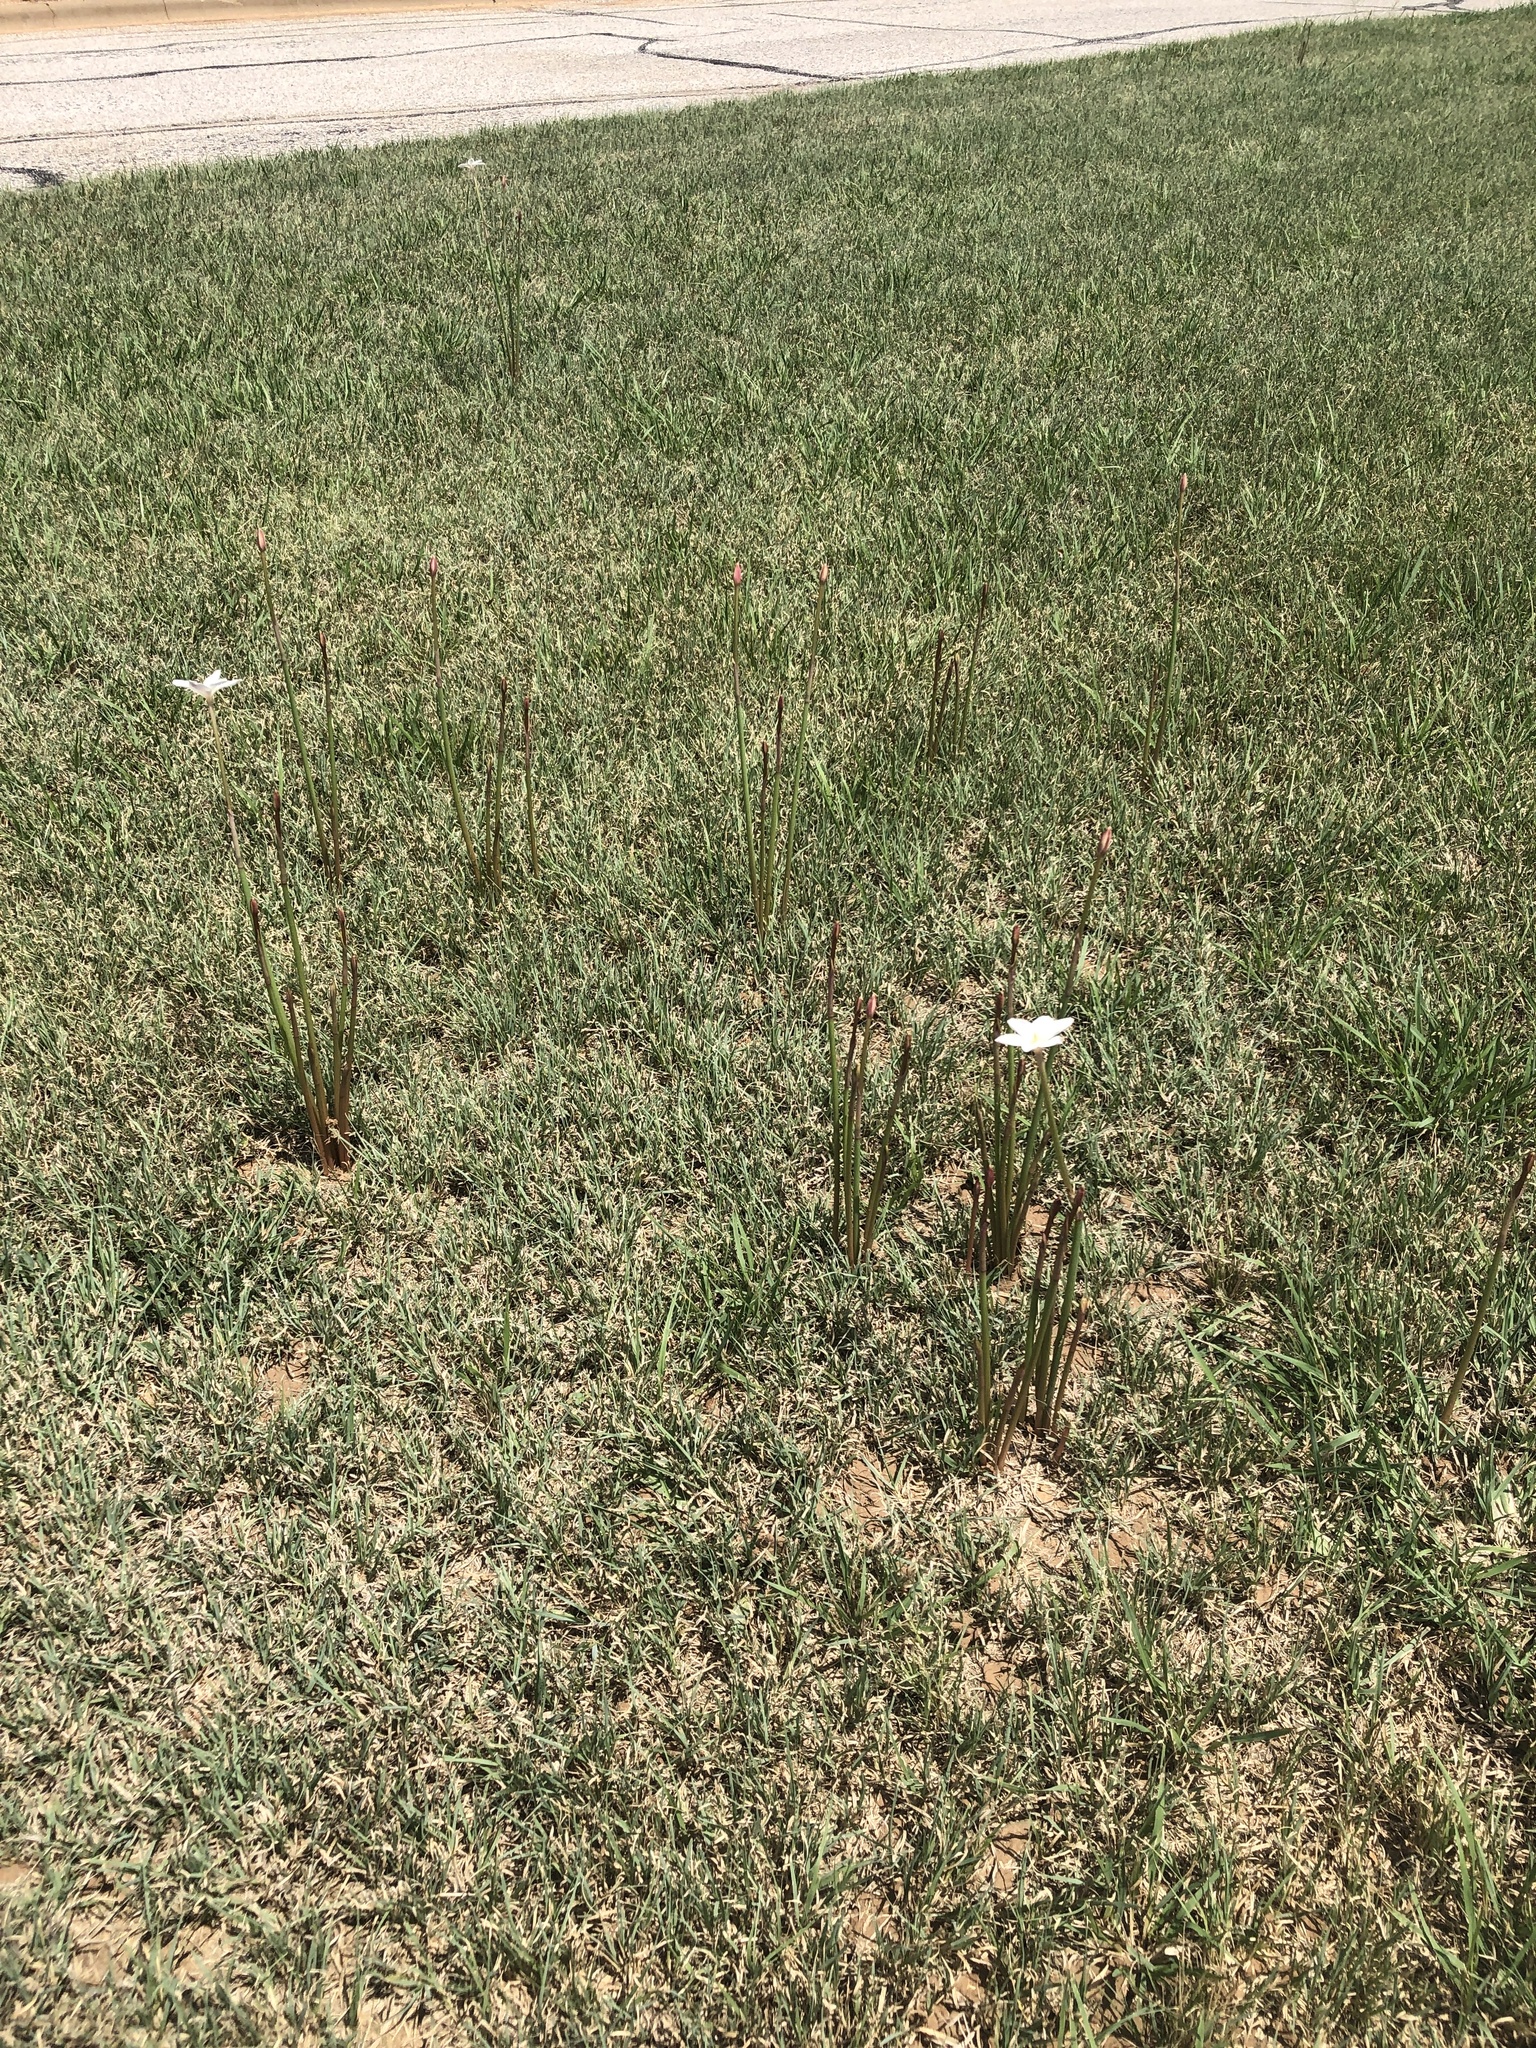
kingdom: Plantae
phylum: Tracheophyta
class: Liliopsida
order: Asparagales
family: Amaryllidaceae
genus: Zephyranthes
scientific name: Zephyranthes chlorosolen
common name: Evening rain-lily
